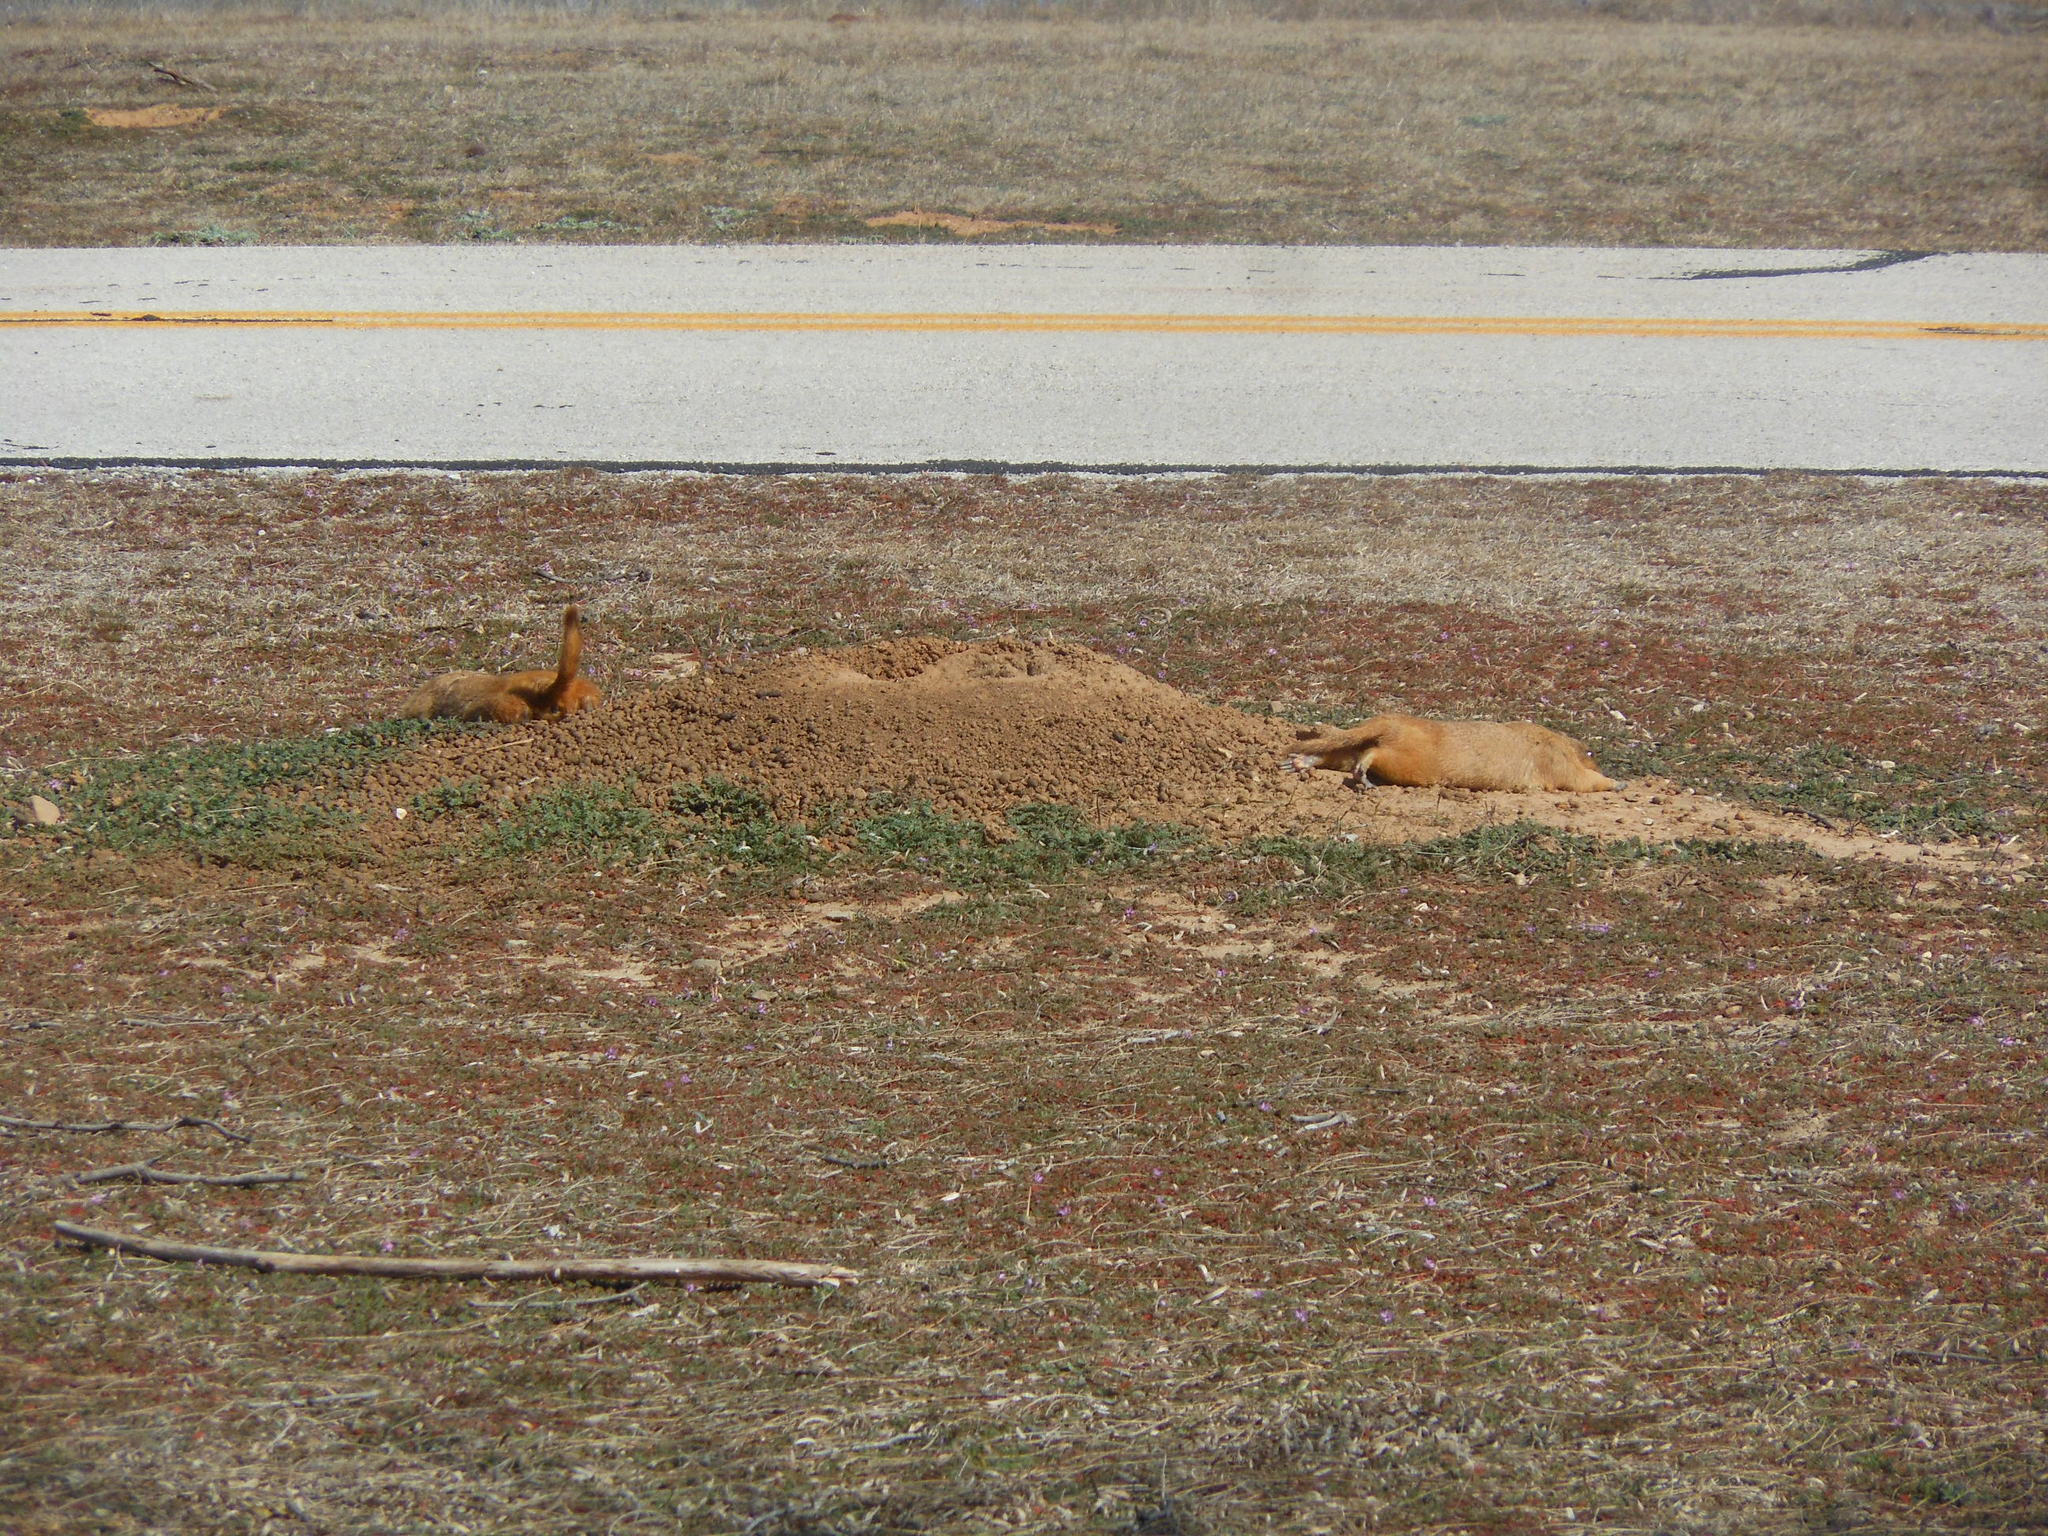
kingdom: Animalia
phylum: Chordata
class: Mammalia
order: Rodentia
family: Sciuridae
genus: Cynomys
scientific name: Cynomys ludovicianus
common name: Black-tailed prairie dog
